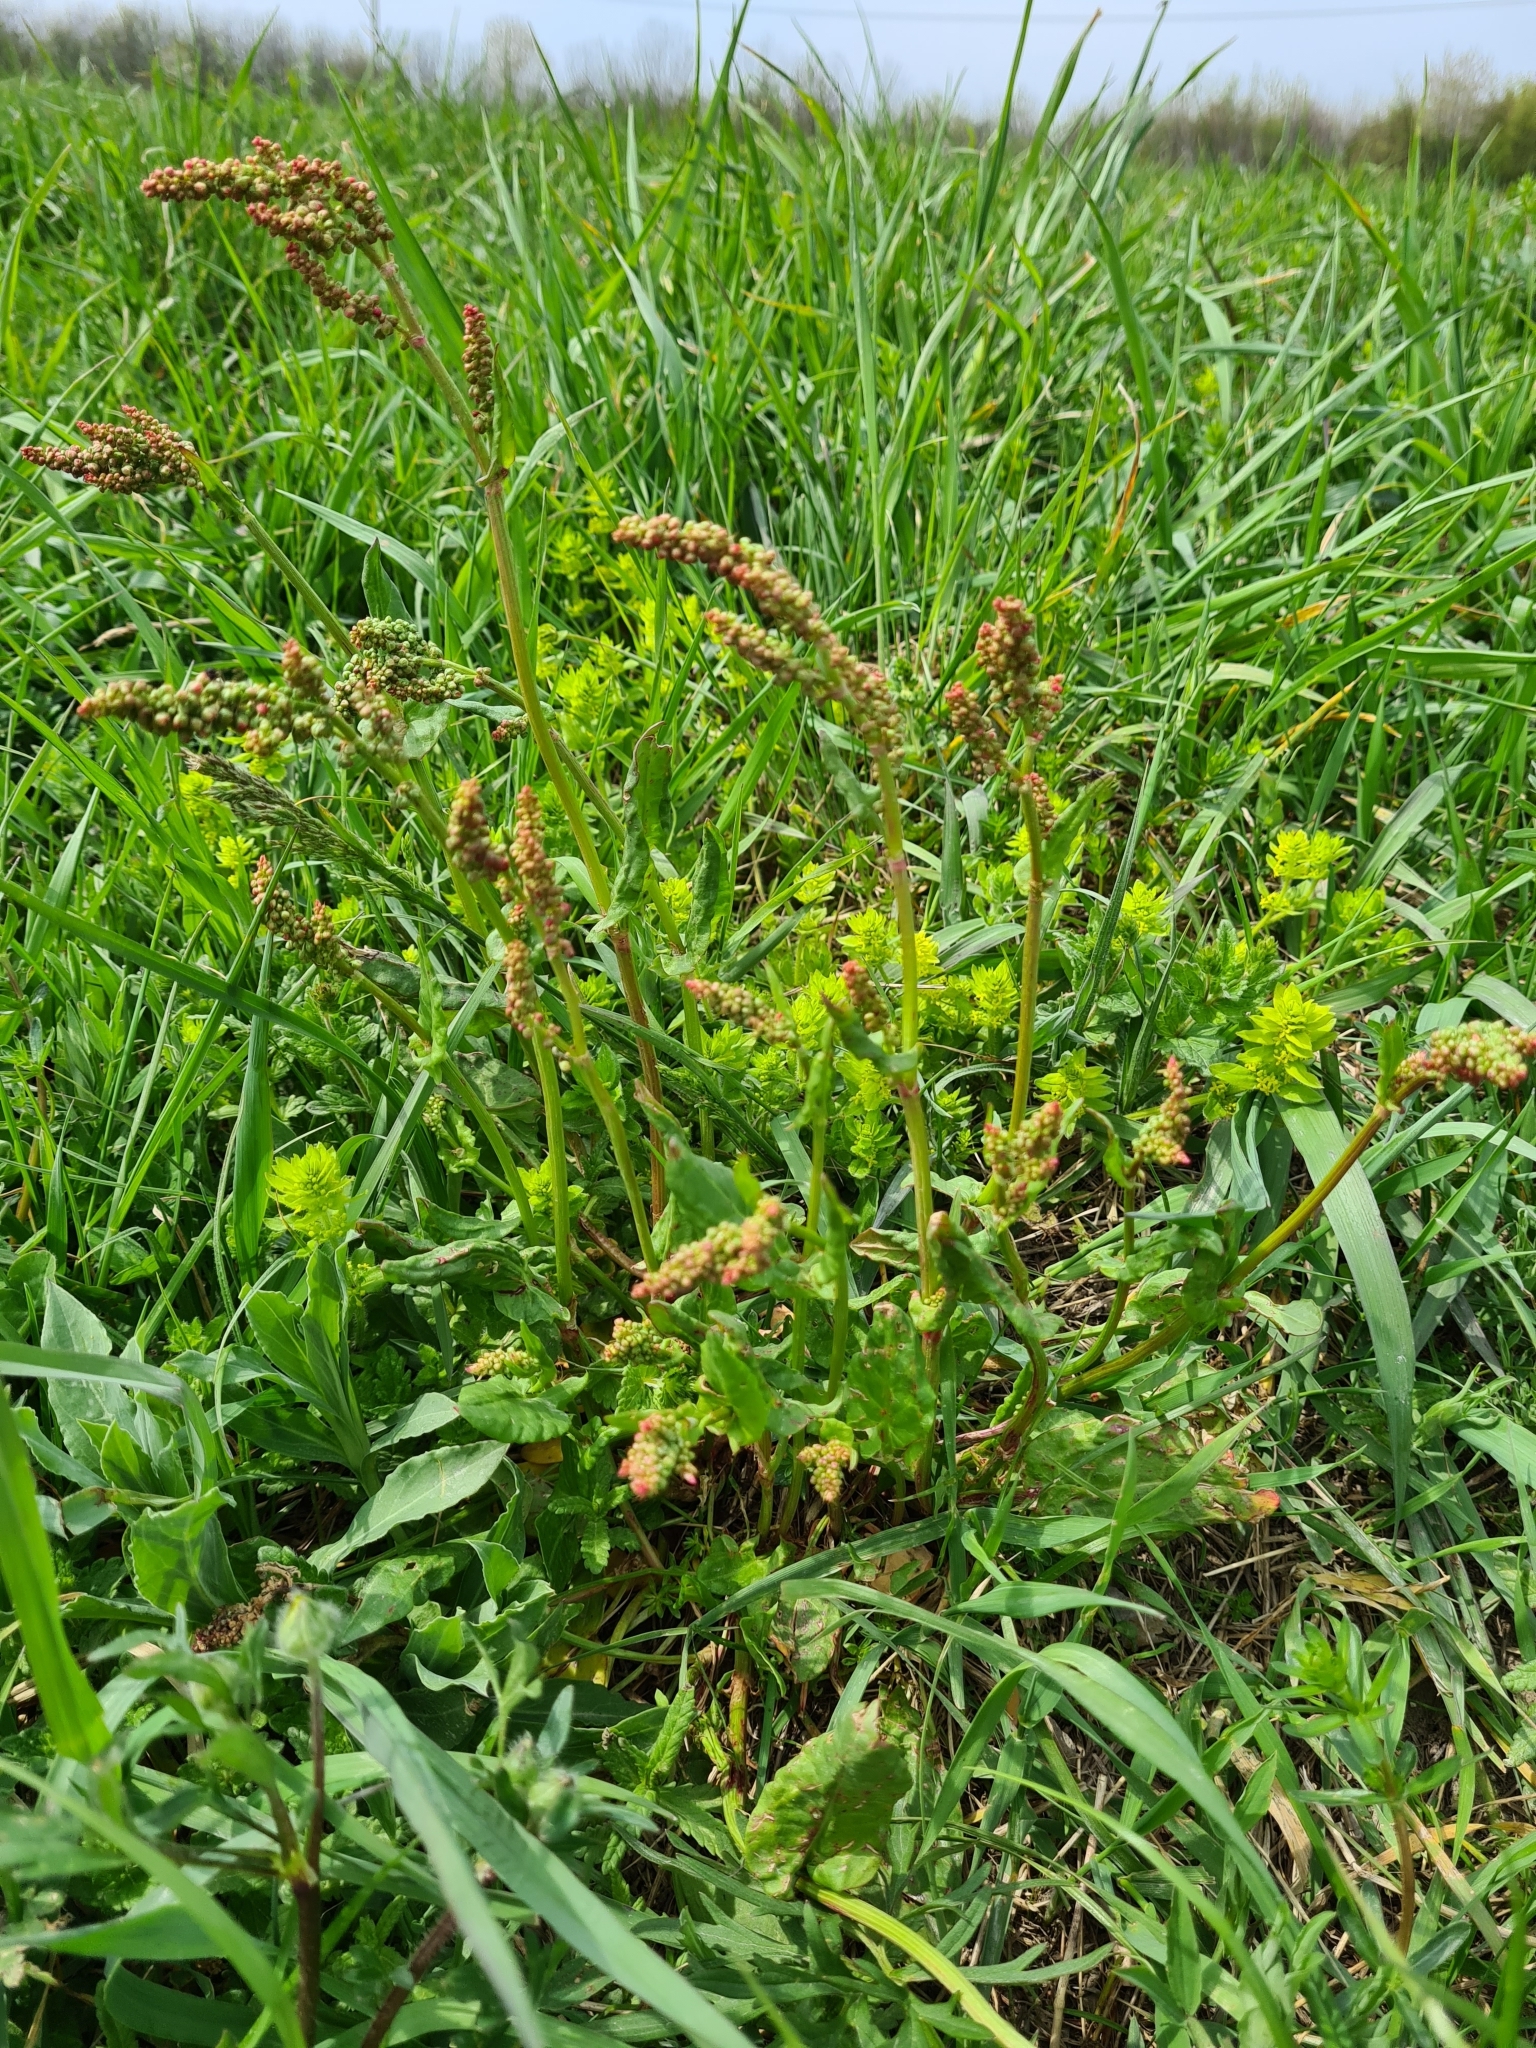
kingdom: Plantae
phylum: Tracheophyta
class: Magnoliopsida
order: Caryophyllales
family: Polygonaceae
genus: Rumex
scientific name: Rumex acetosa
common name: Garden sorrel
